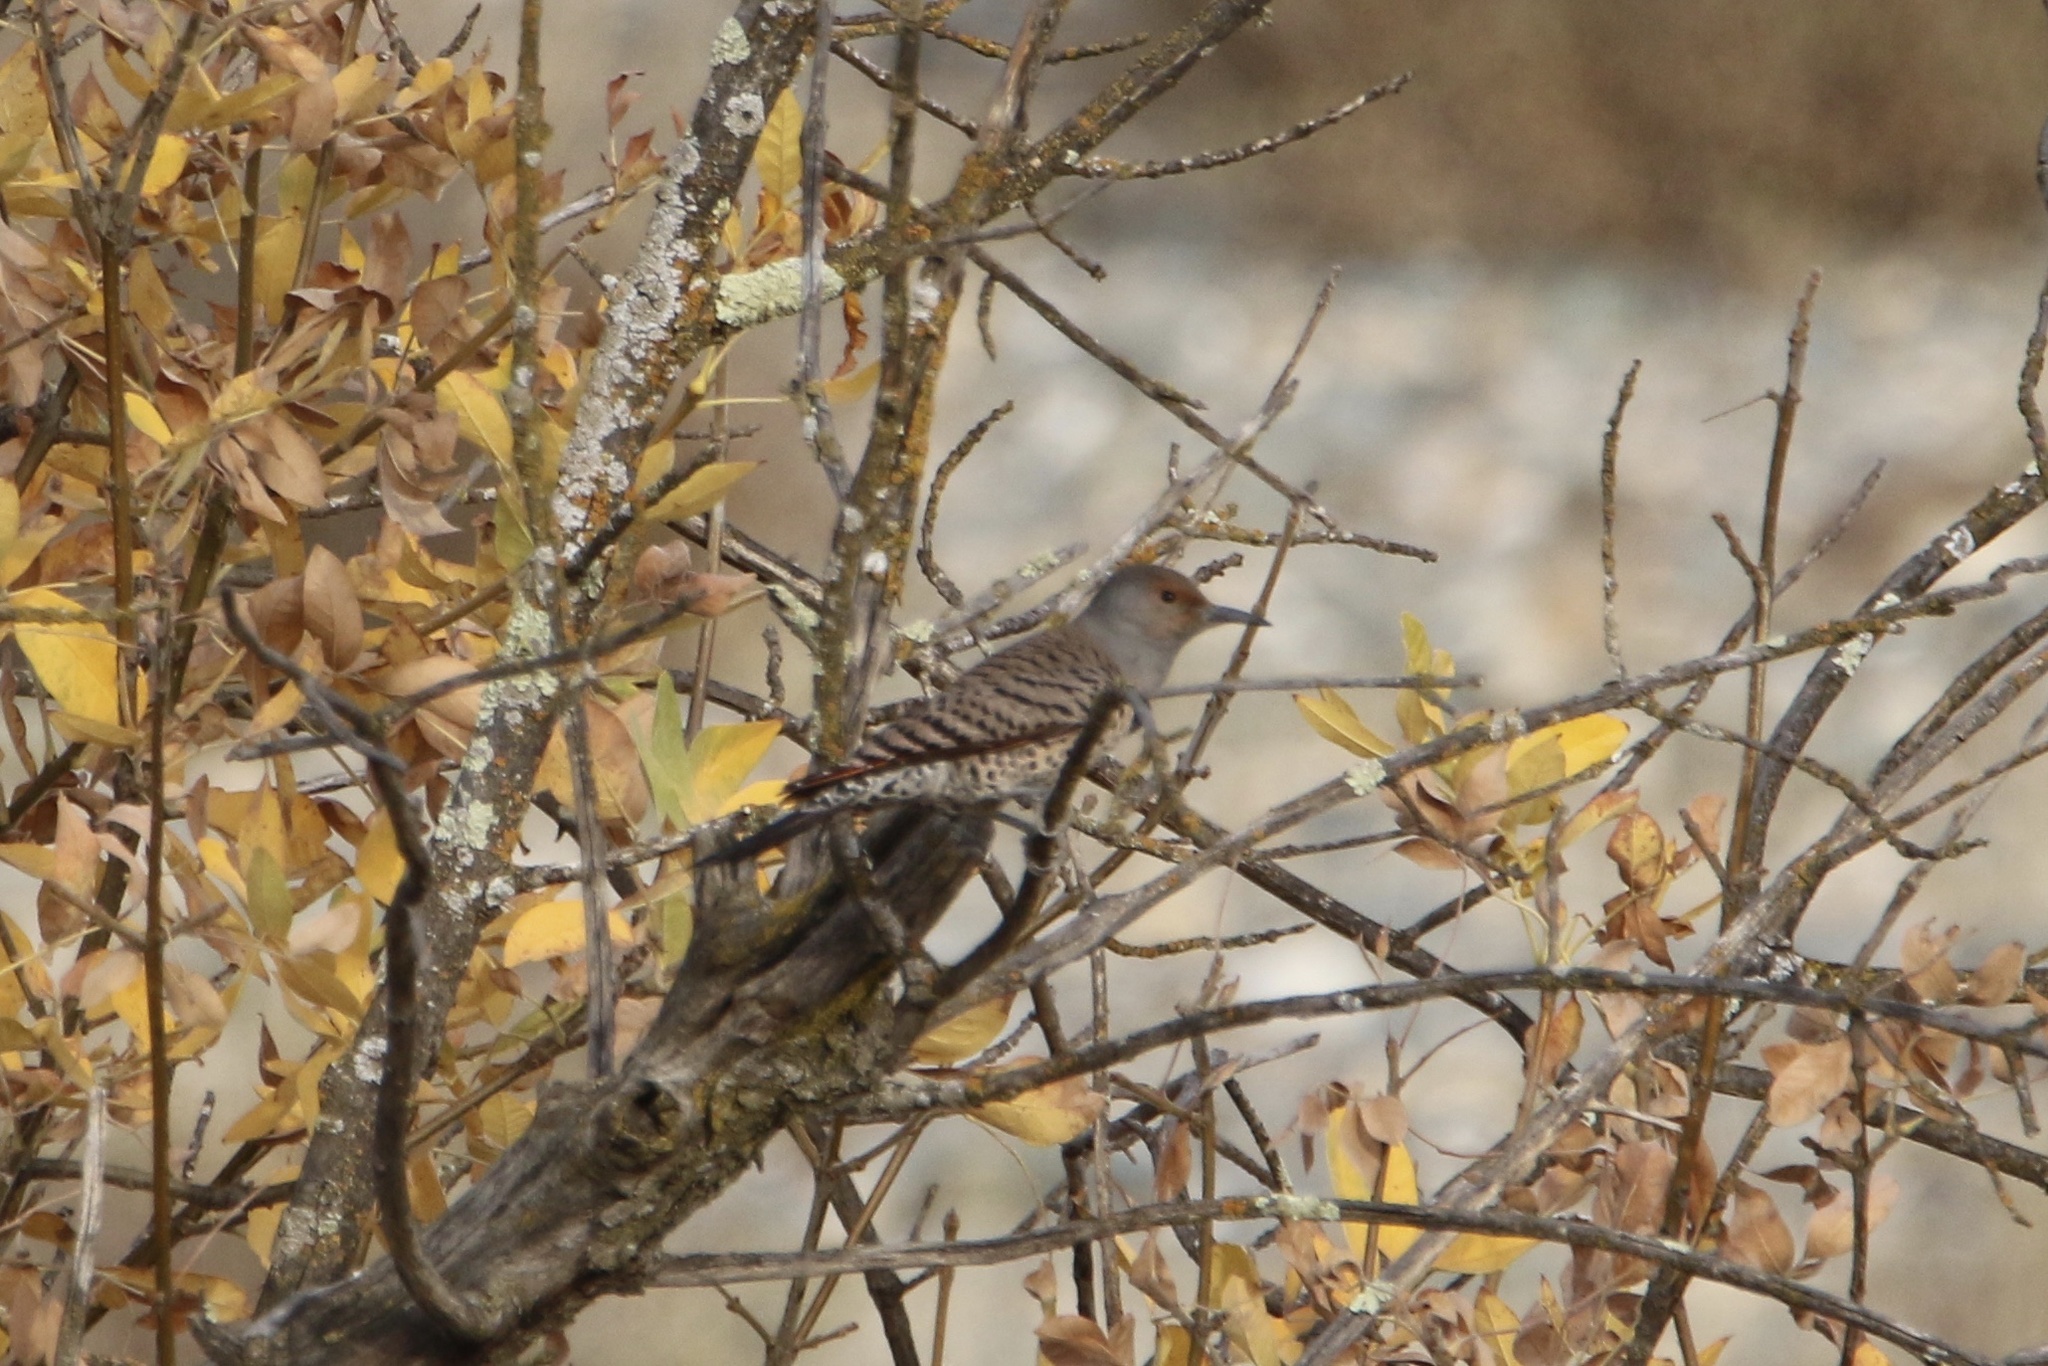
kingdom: Animalia
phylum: Chordata
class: Aves
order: Piciformes
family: Picidae
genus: Colaptes
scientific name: Colaptes auratus
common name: Northern flicker
